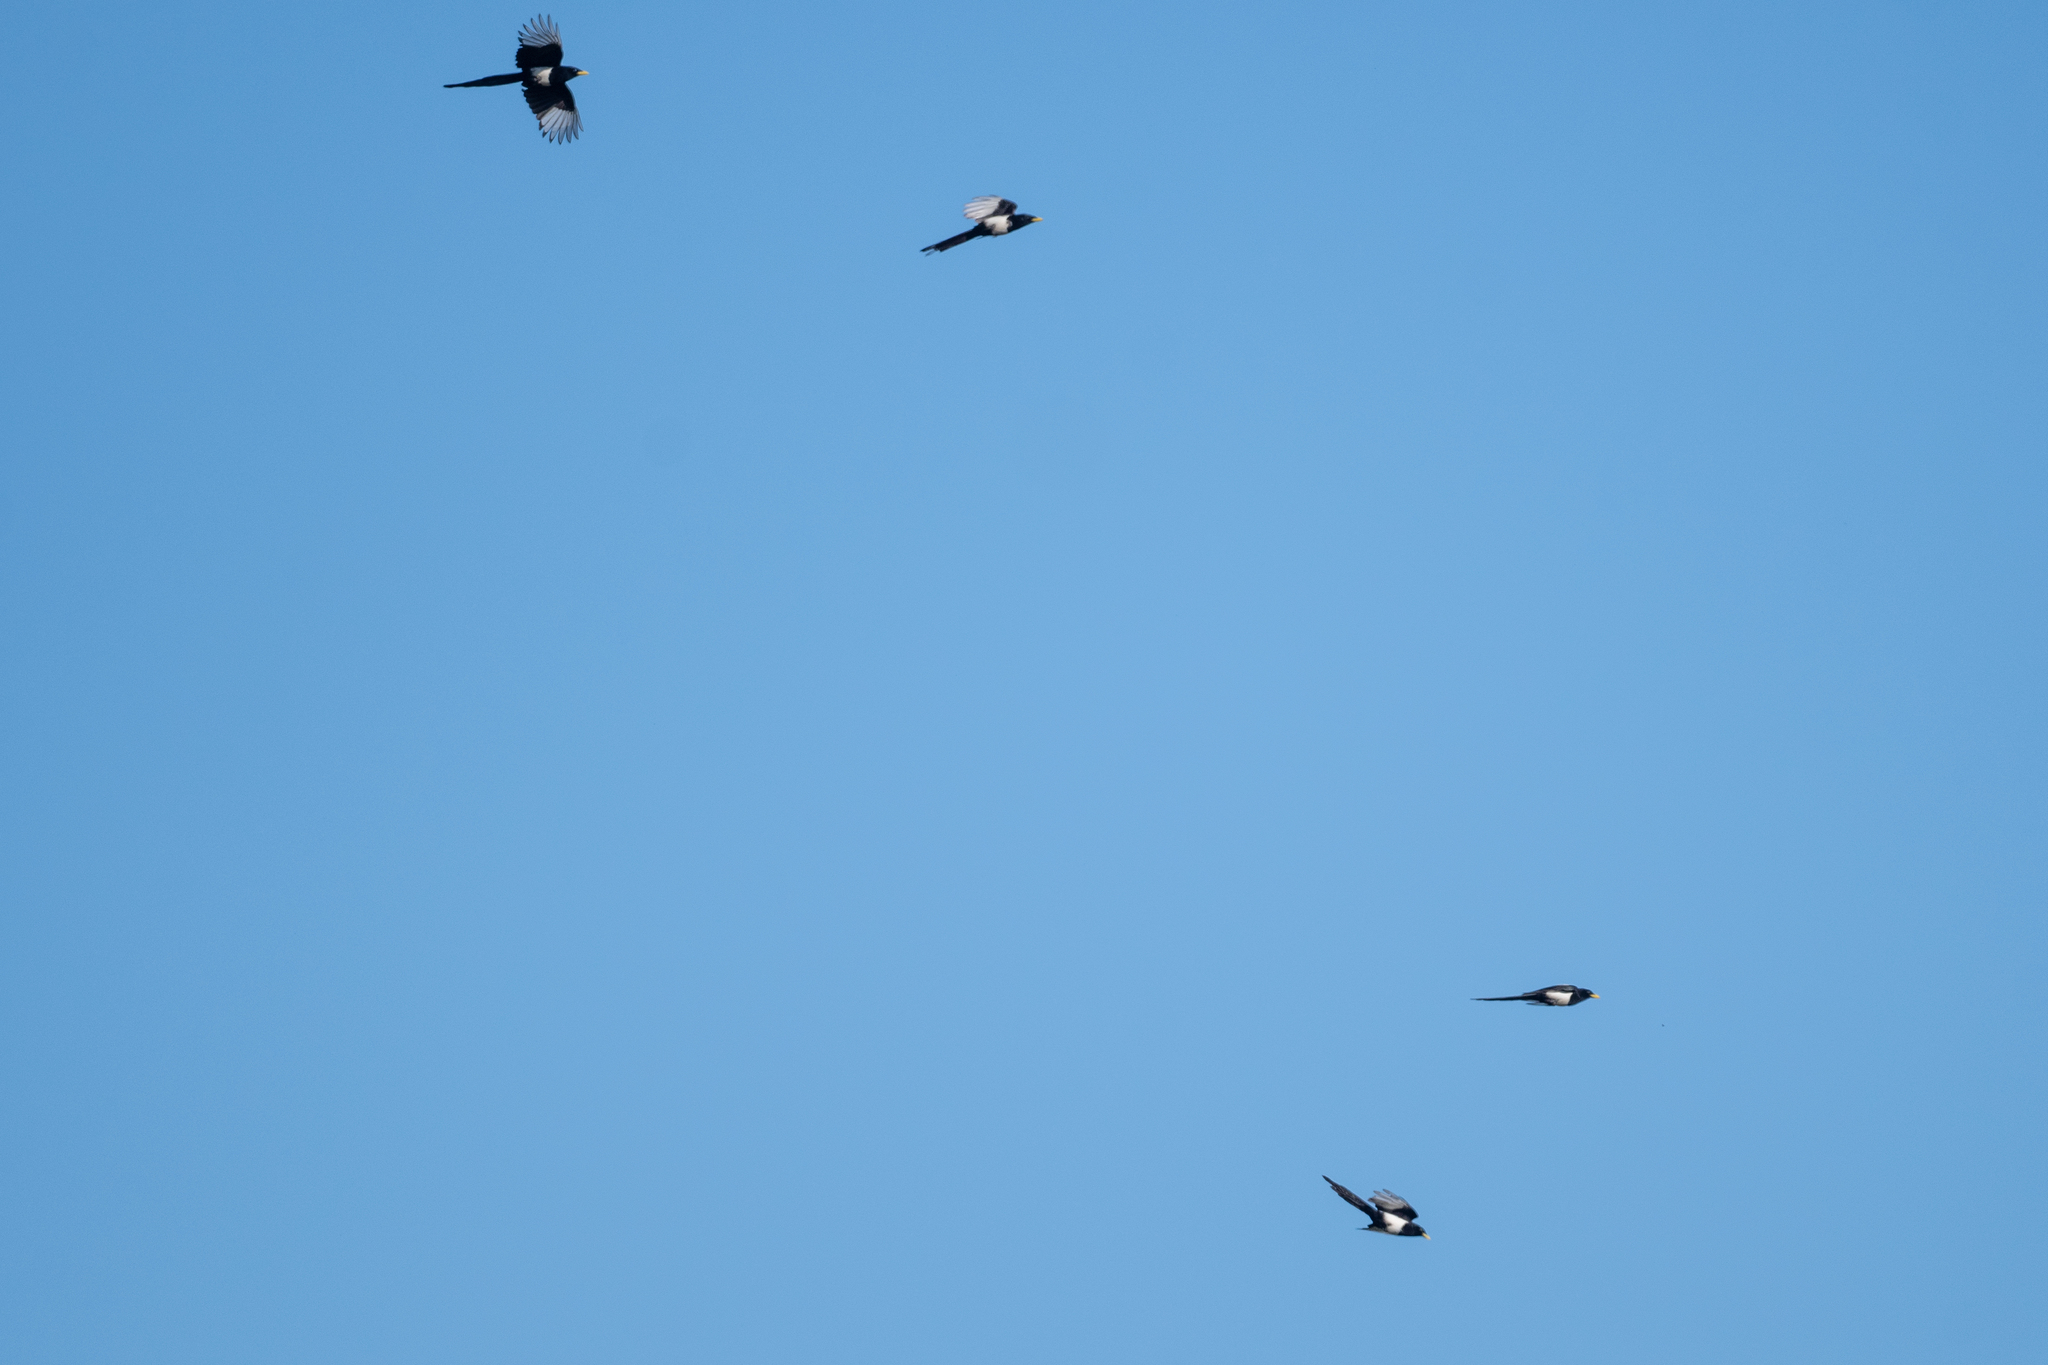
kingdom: Animalia
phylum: Chordata
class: Aves
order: Passeriformes
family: Corvidae
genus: Pica
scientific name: Pica nuttalli
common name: Yellow-billed magpie
